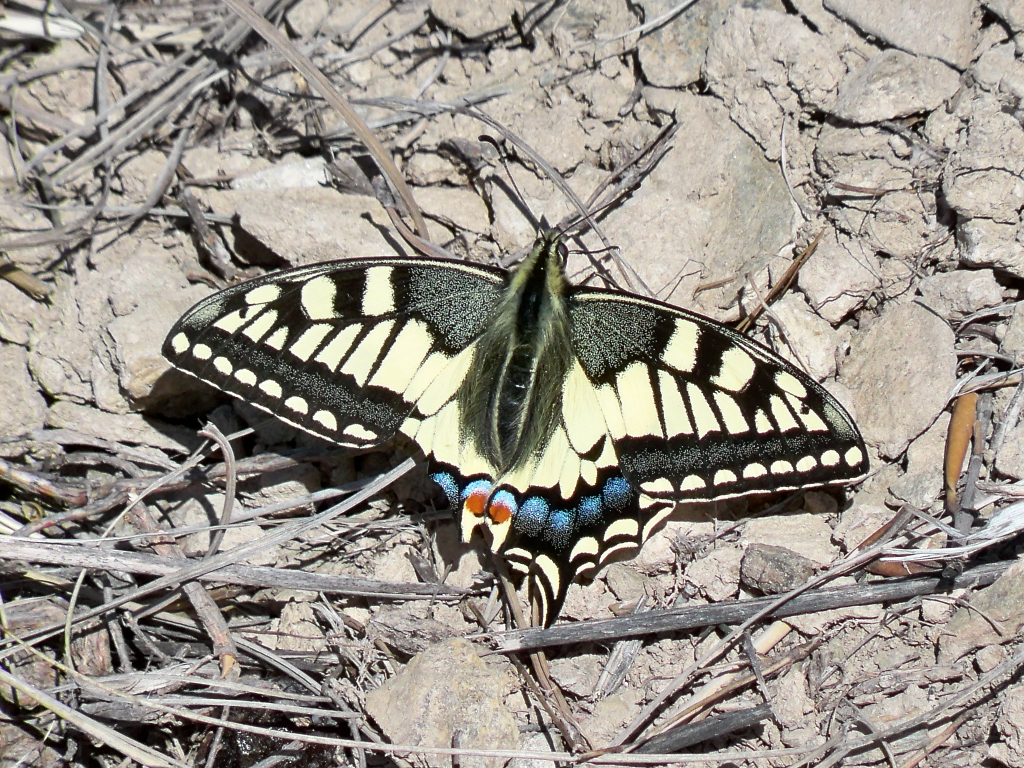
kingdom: Animalia
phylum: Arthropoda
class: Insecta
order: Lepidoptera
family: Papilionidae
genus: Papilio
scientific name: Papilio machaon
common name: Swallowtail
